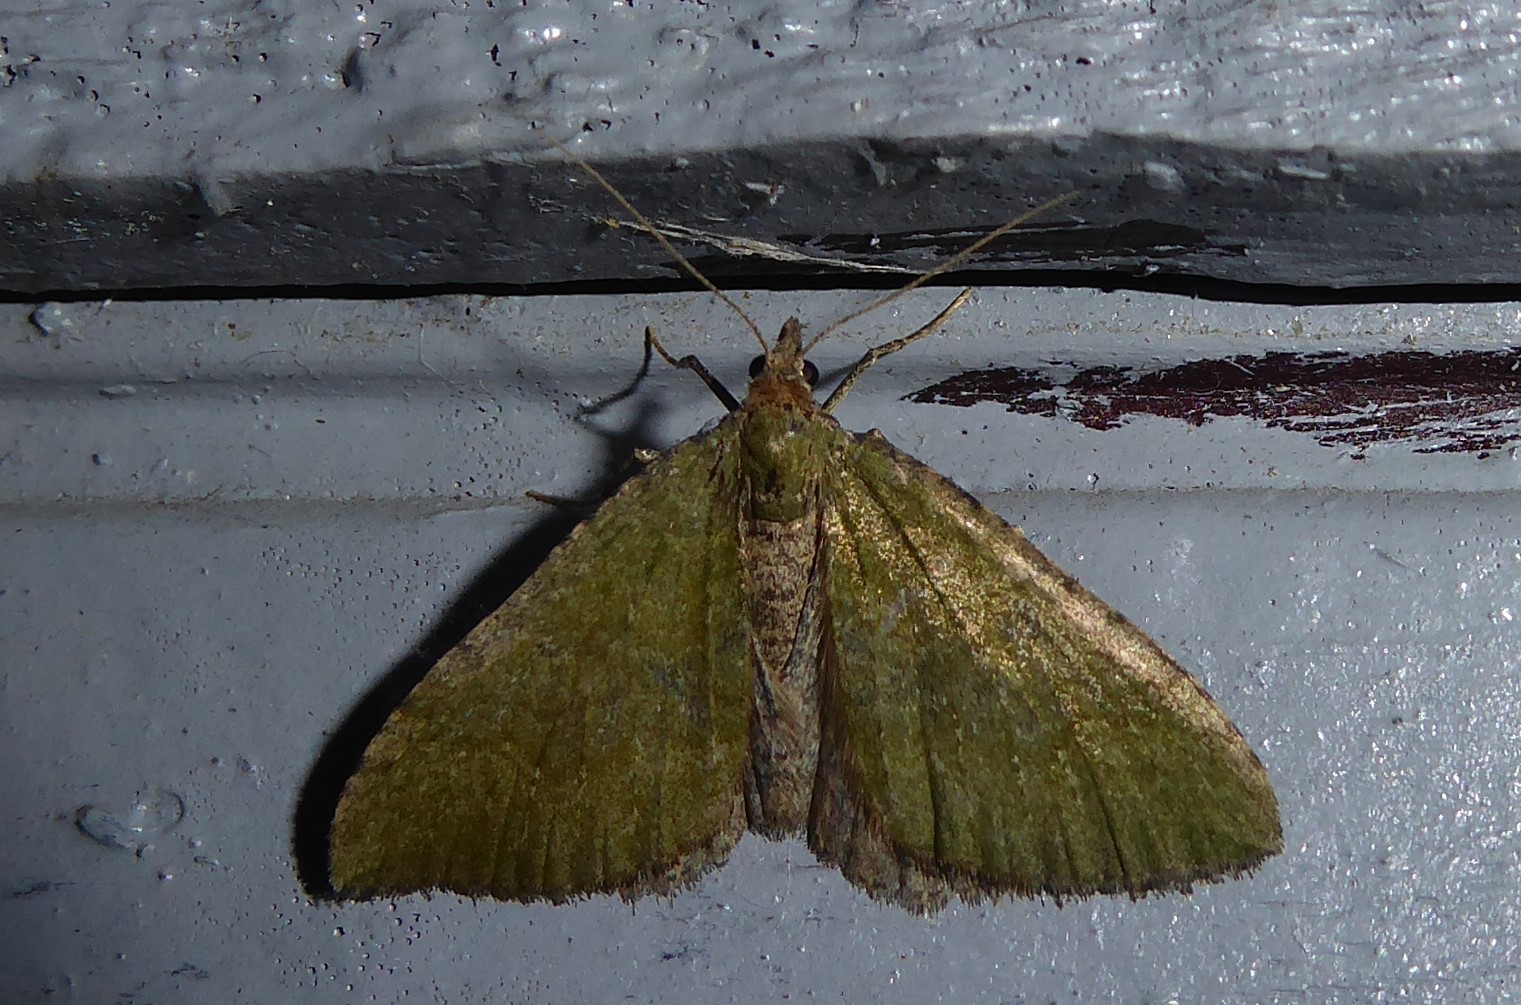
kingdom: Animalia
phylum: Arthropoda
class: Insecta
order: Lepidoptera
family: Geometridae
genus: Epyaxa
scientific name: Epyaxa rosearia
